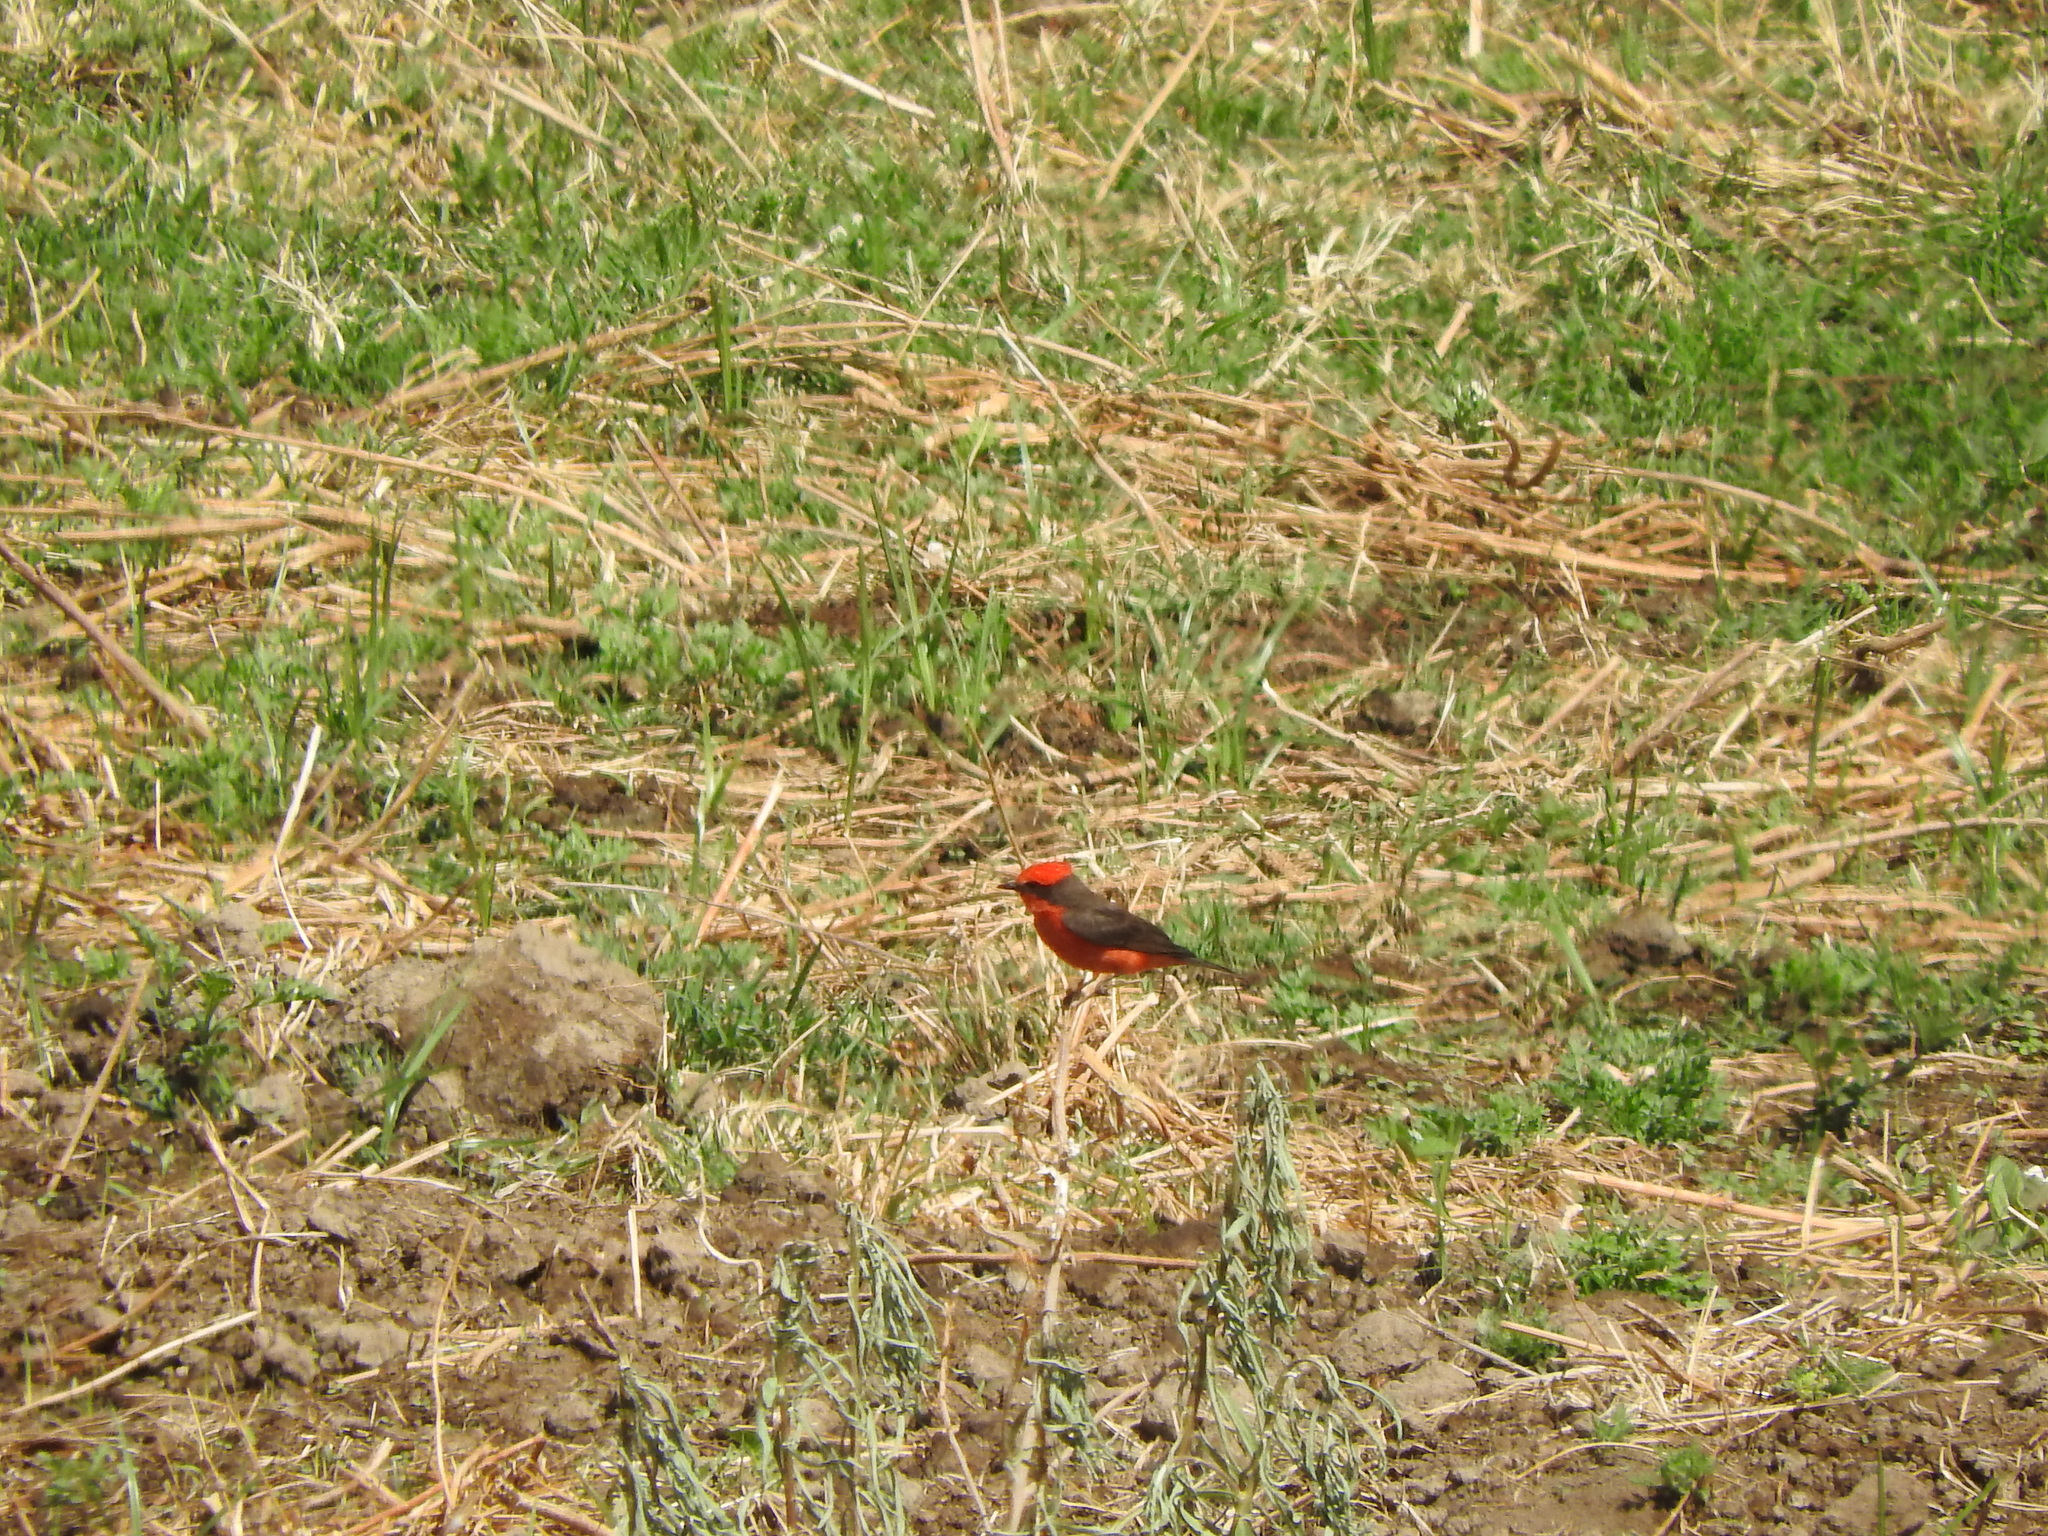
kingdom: Animalia
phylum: Chordata
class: Aves
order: Passeriformes
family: Tyrannidae
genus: Pyrocephalus
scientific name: Pyrocephalus rubinus
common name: Vermilion flycatcher
